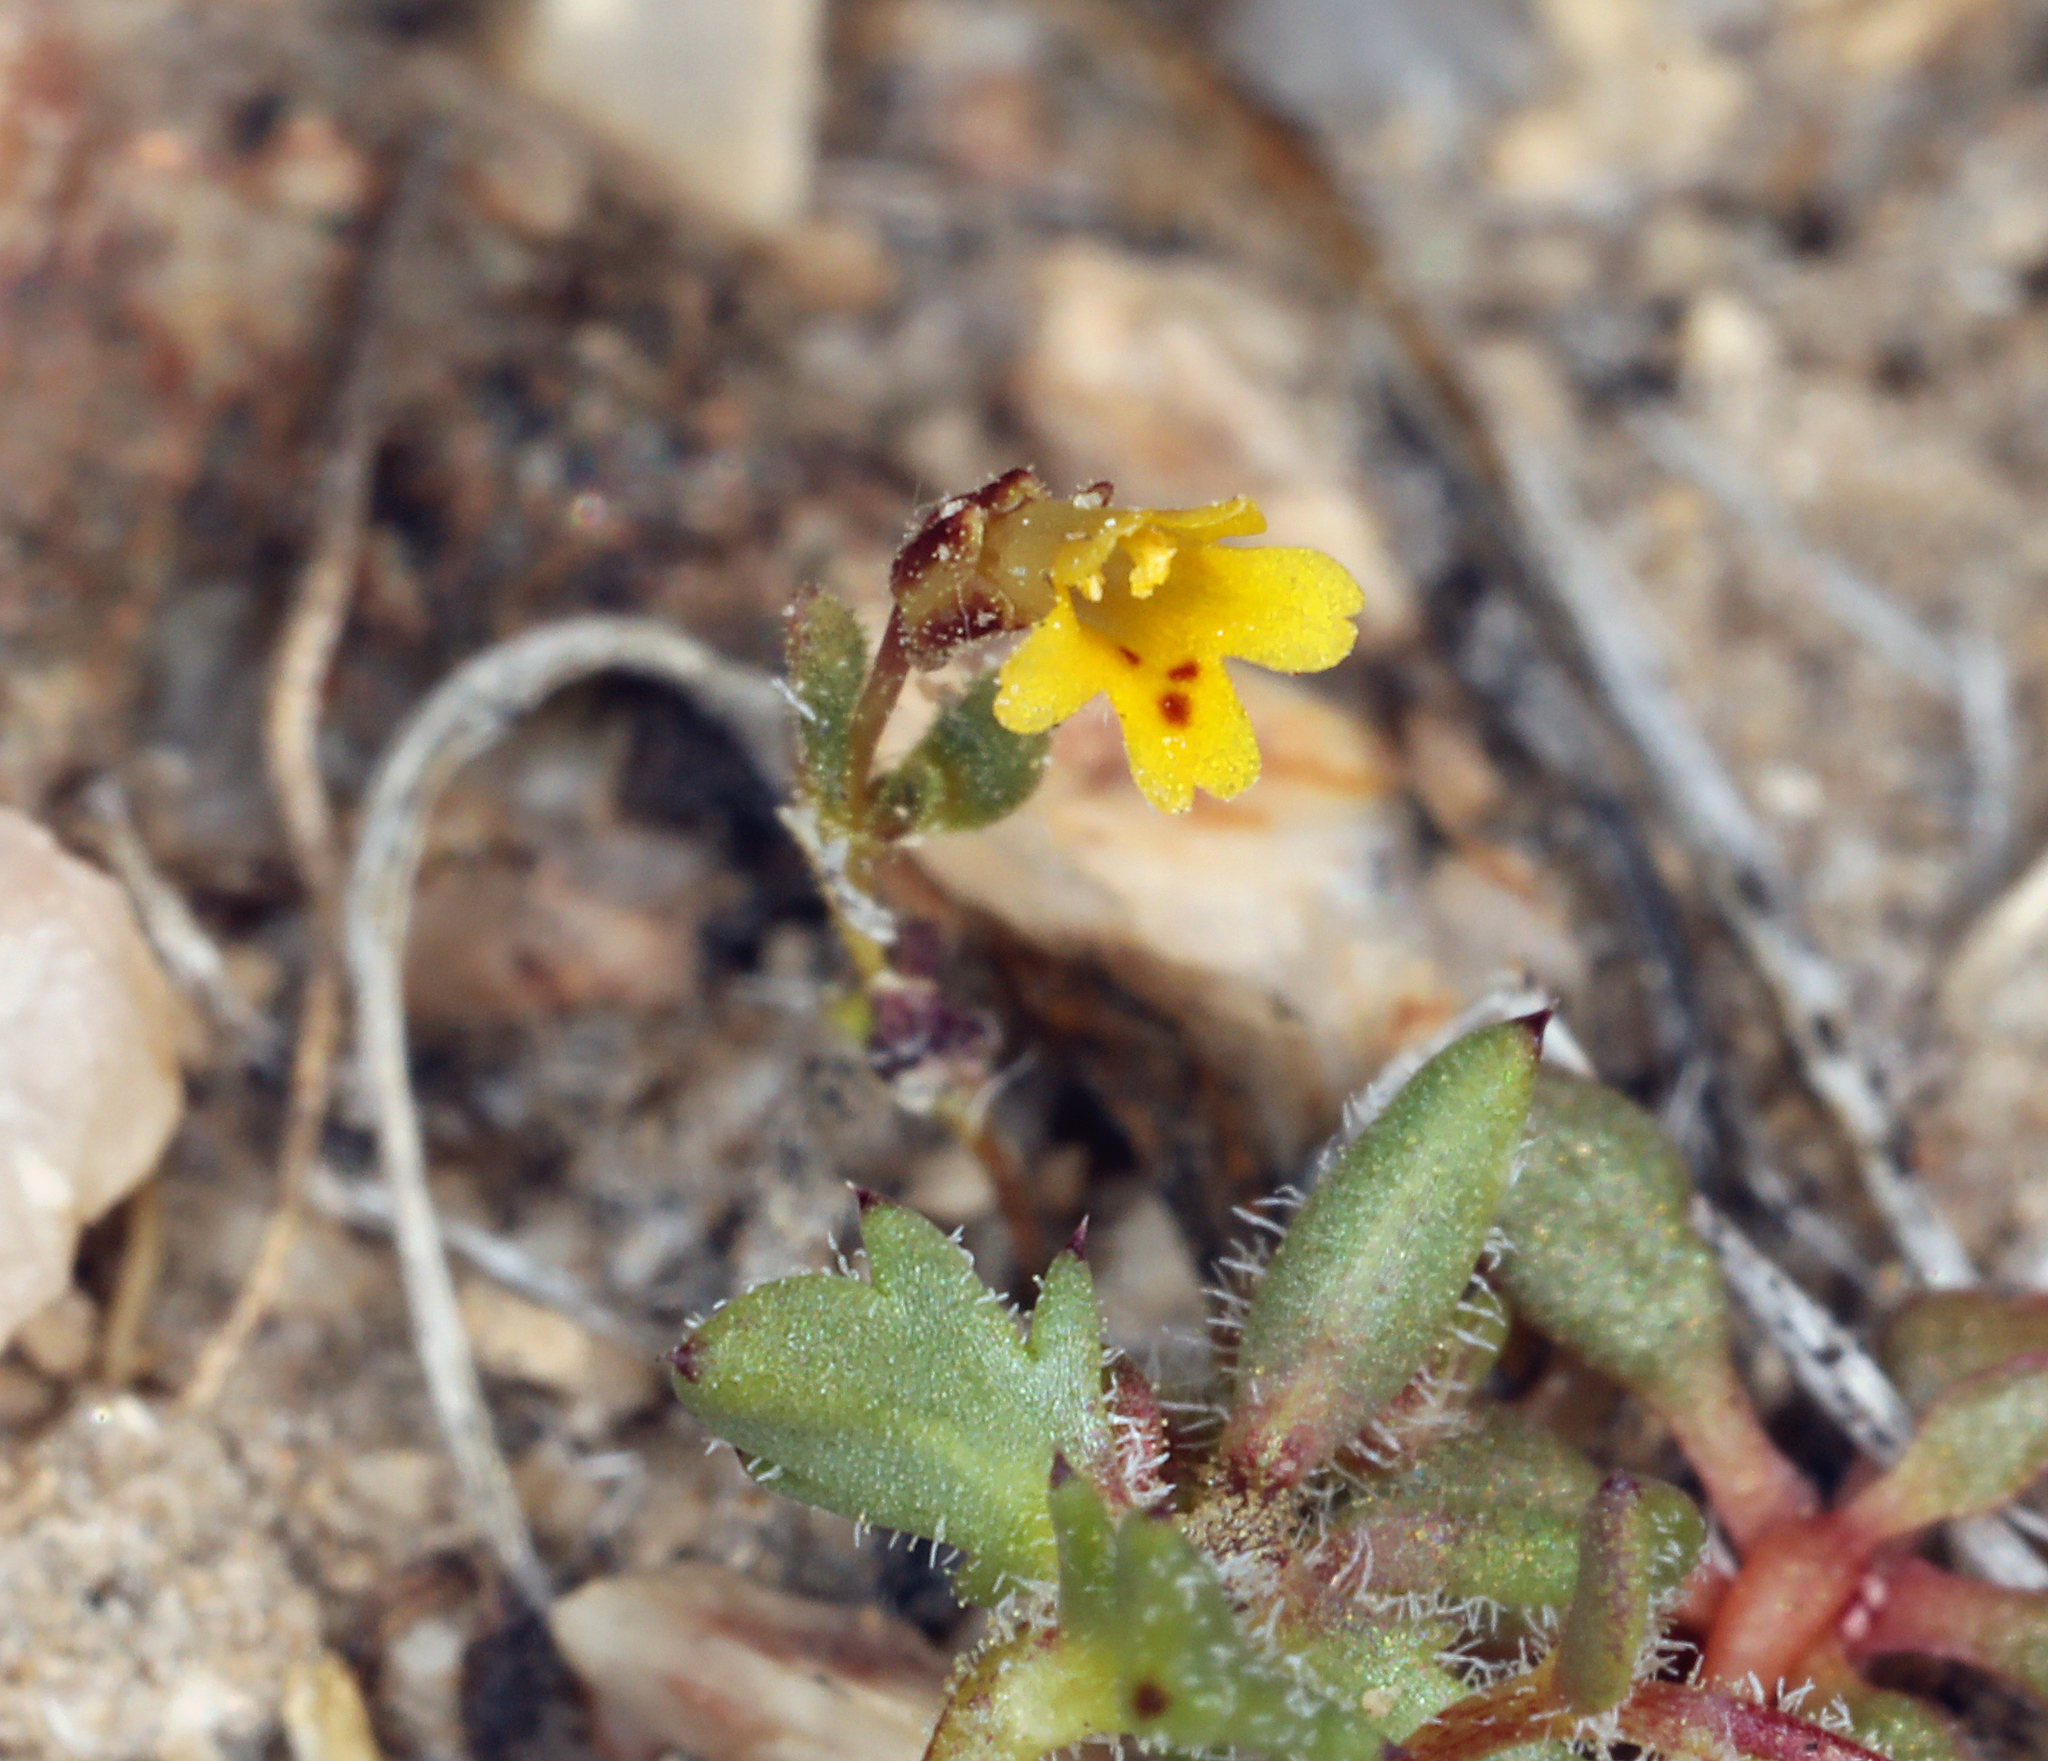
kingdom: Plantae
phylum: Tracheophyta
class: Magnoliopsida
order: Lamiales
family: Phrymaceae
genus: Erythranthe
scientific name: Erythranthe suksdorfii
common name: Suksdorf's monkeyflower
